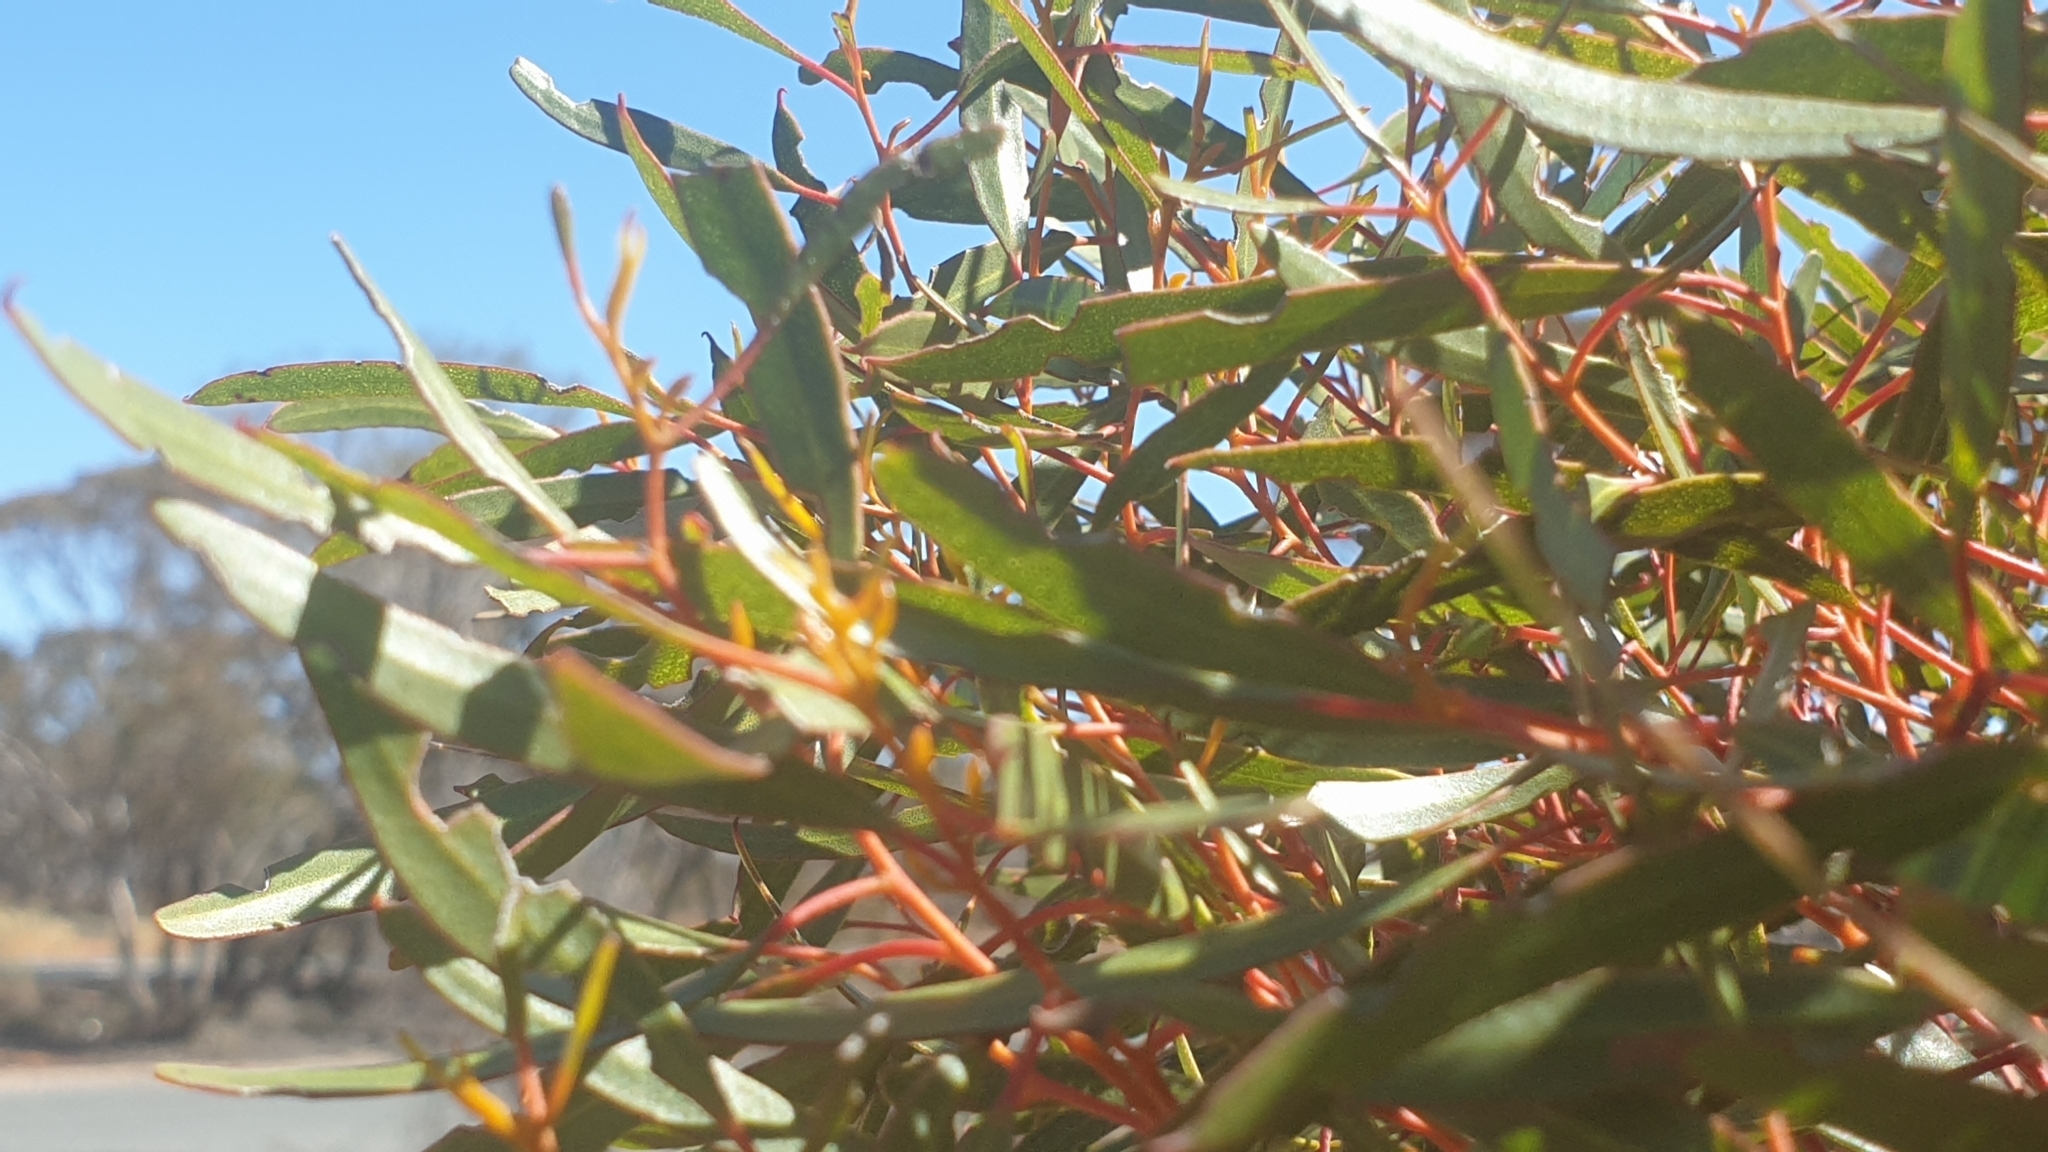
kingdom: Plantae
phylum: Tracheophyta
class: Magnoliopsida
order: Myrtales
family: Myrtaceae
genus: Eucalyptus
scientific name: Eucalyptus foecunda
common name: Freemantle mallee
